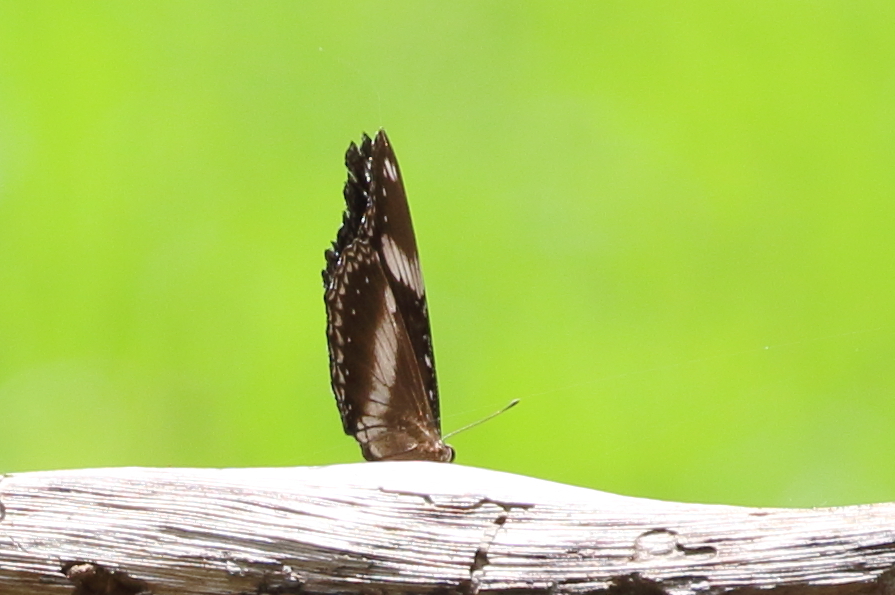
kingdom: Animalia
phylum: Arthropoda
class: Insecta
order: Lepidoptera
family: Nymphalidae
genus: Hypolimnas
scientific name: Hypolimnas bolina
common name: Great eggfly
